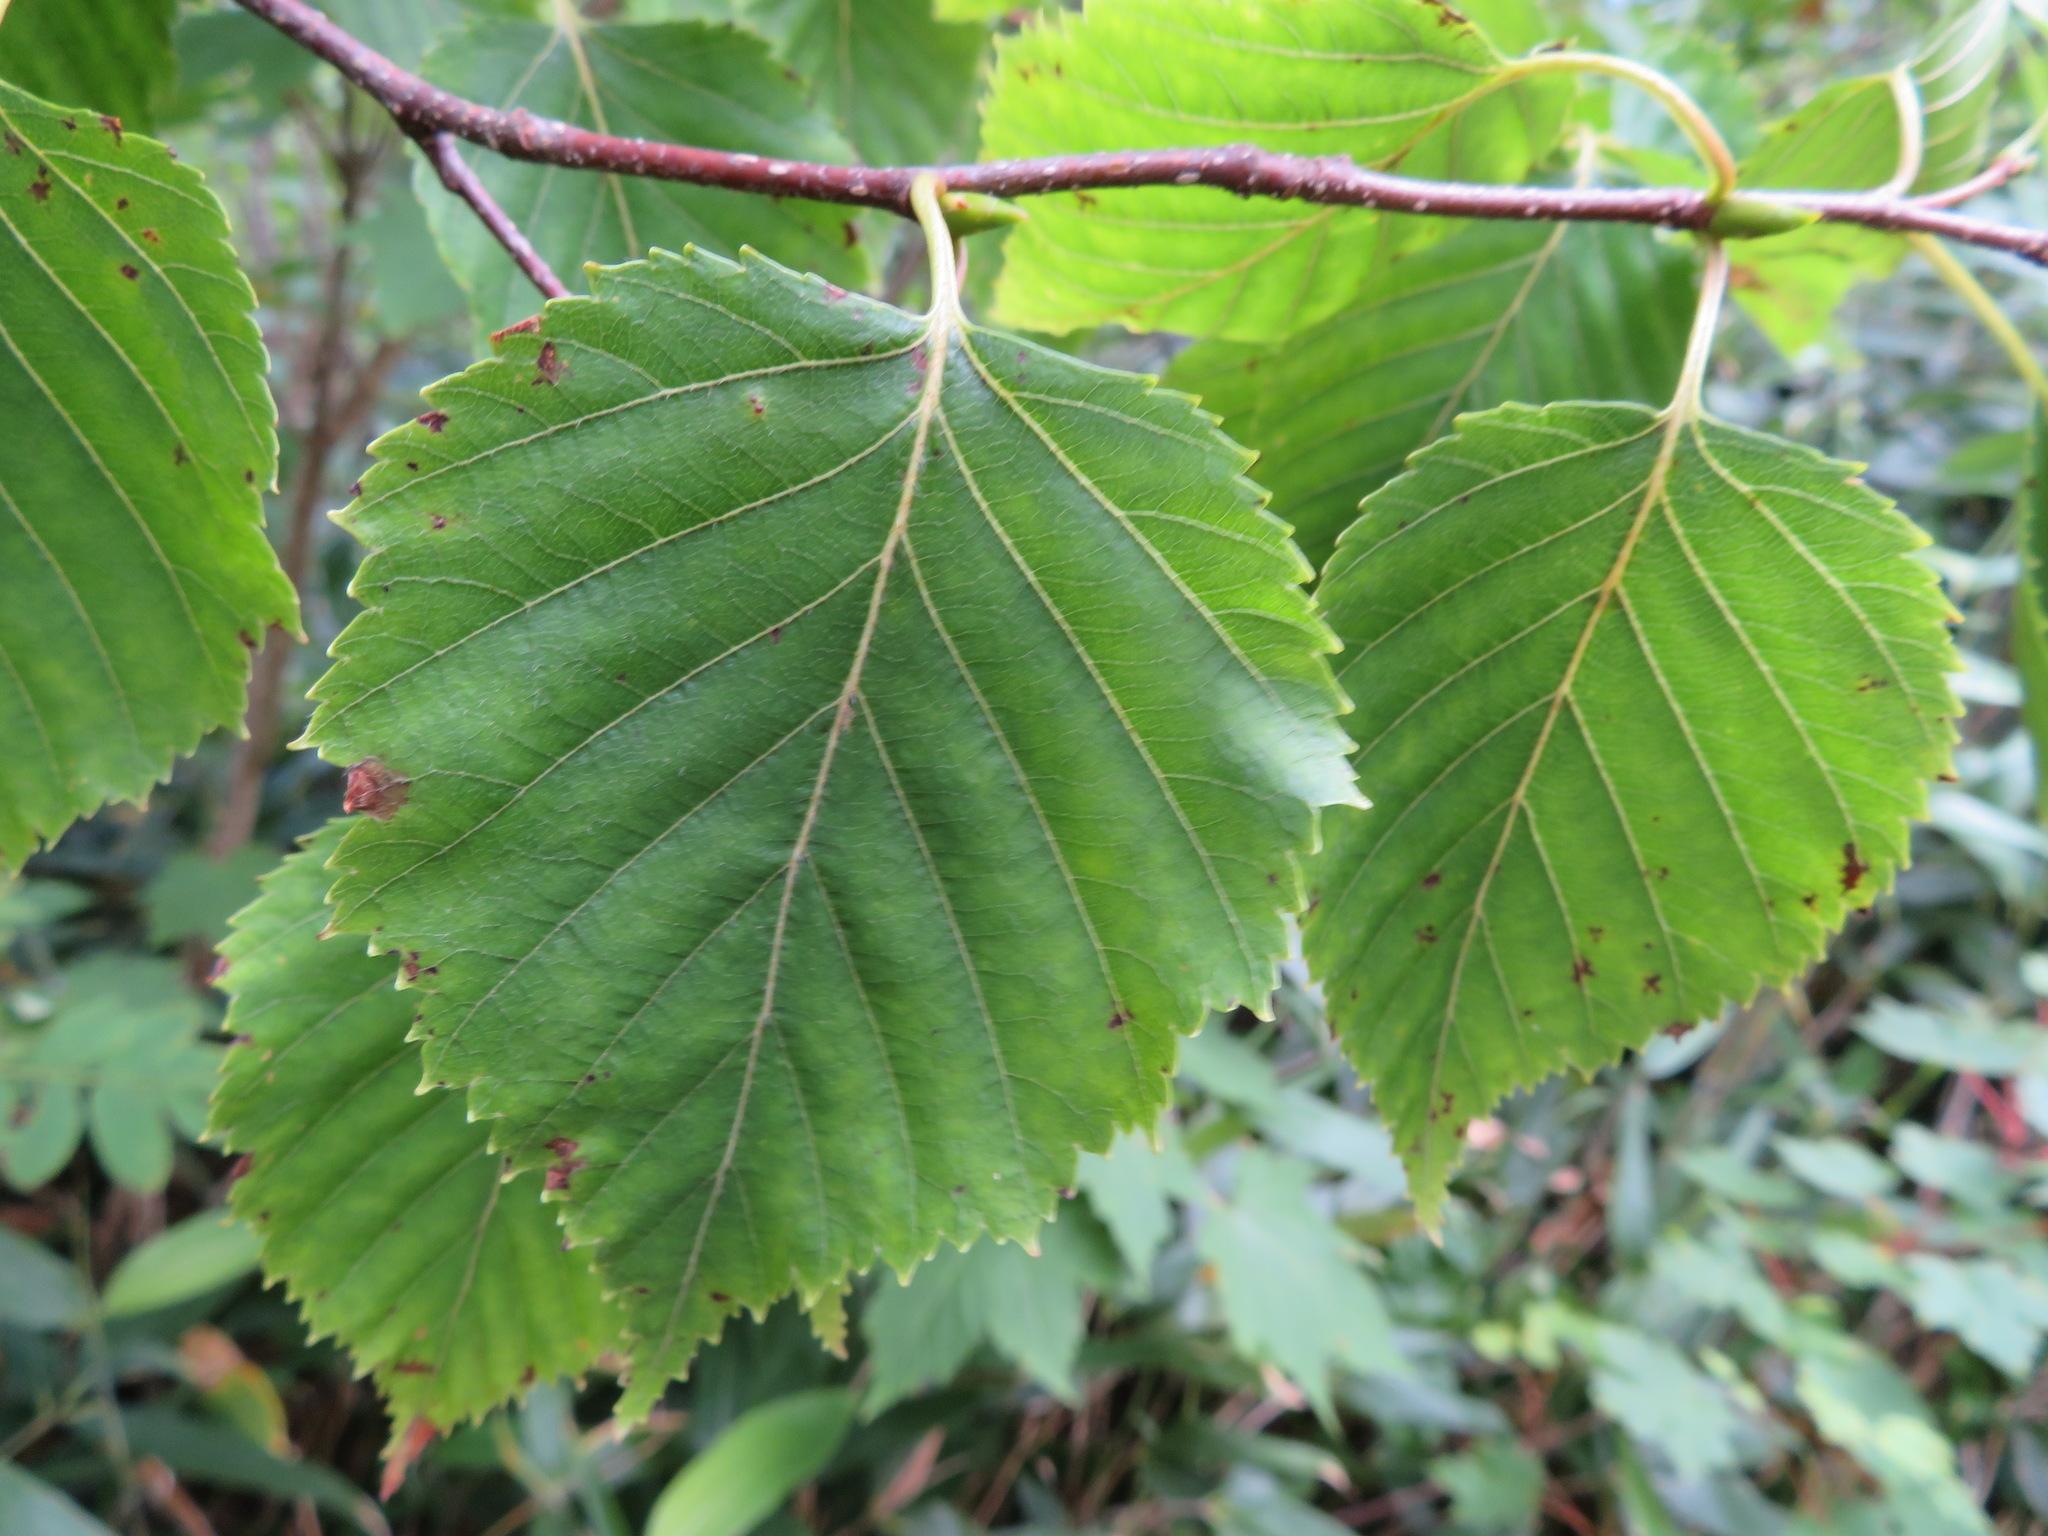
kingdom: Plantae
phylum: Tracheophyta
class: Magnoliopsida
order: Fagales
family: Betulaceae
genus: Betula
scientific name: Betula ermanii
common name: Erman's birch
